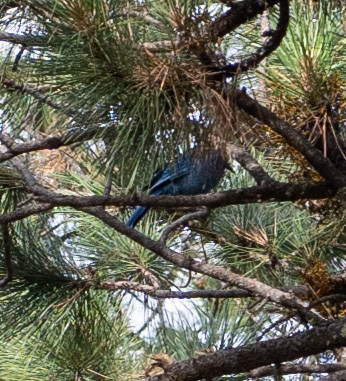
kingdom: Animalia
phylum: Chordata
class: Aves
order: Passeriformes
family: Corvidae
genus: Cyanocitta
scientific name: Cyanocitta stelleri
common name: Steller's jay
